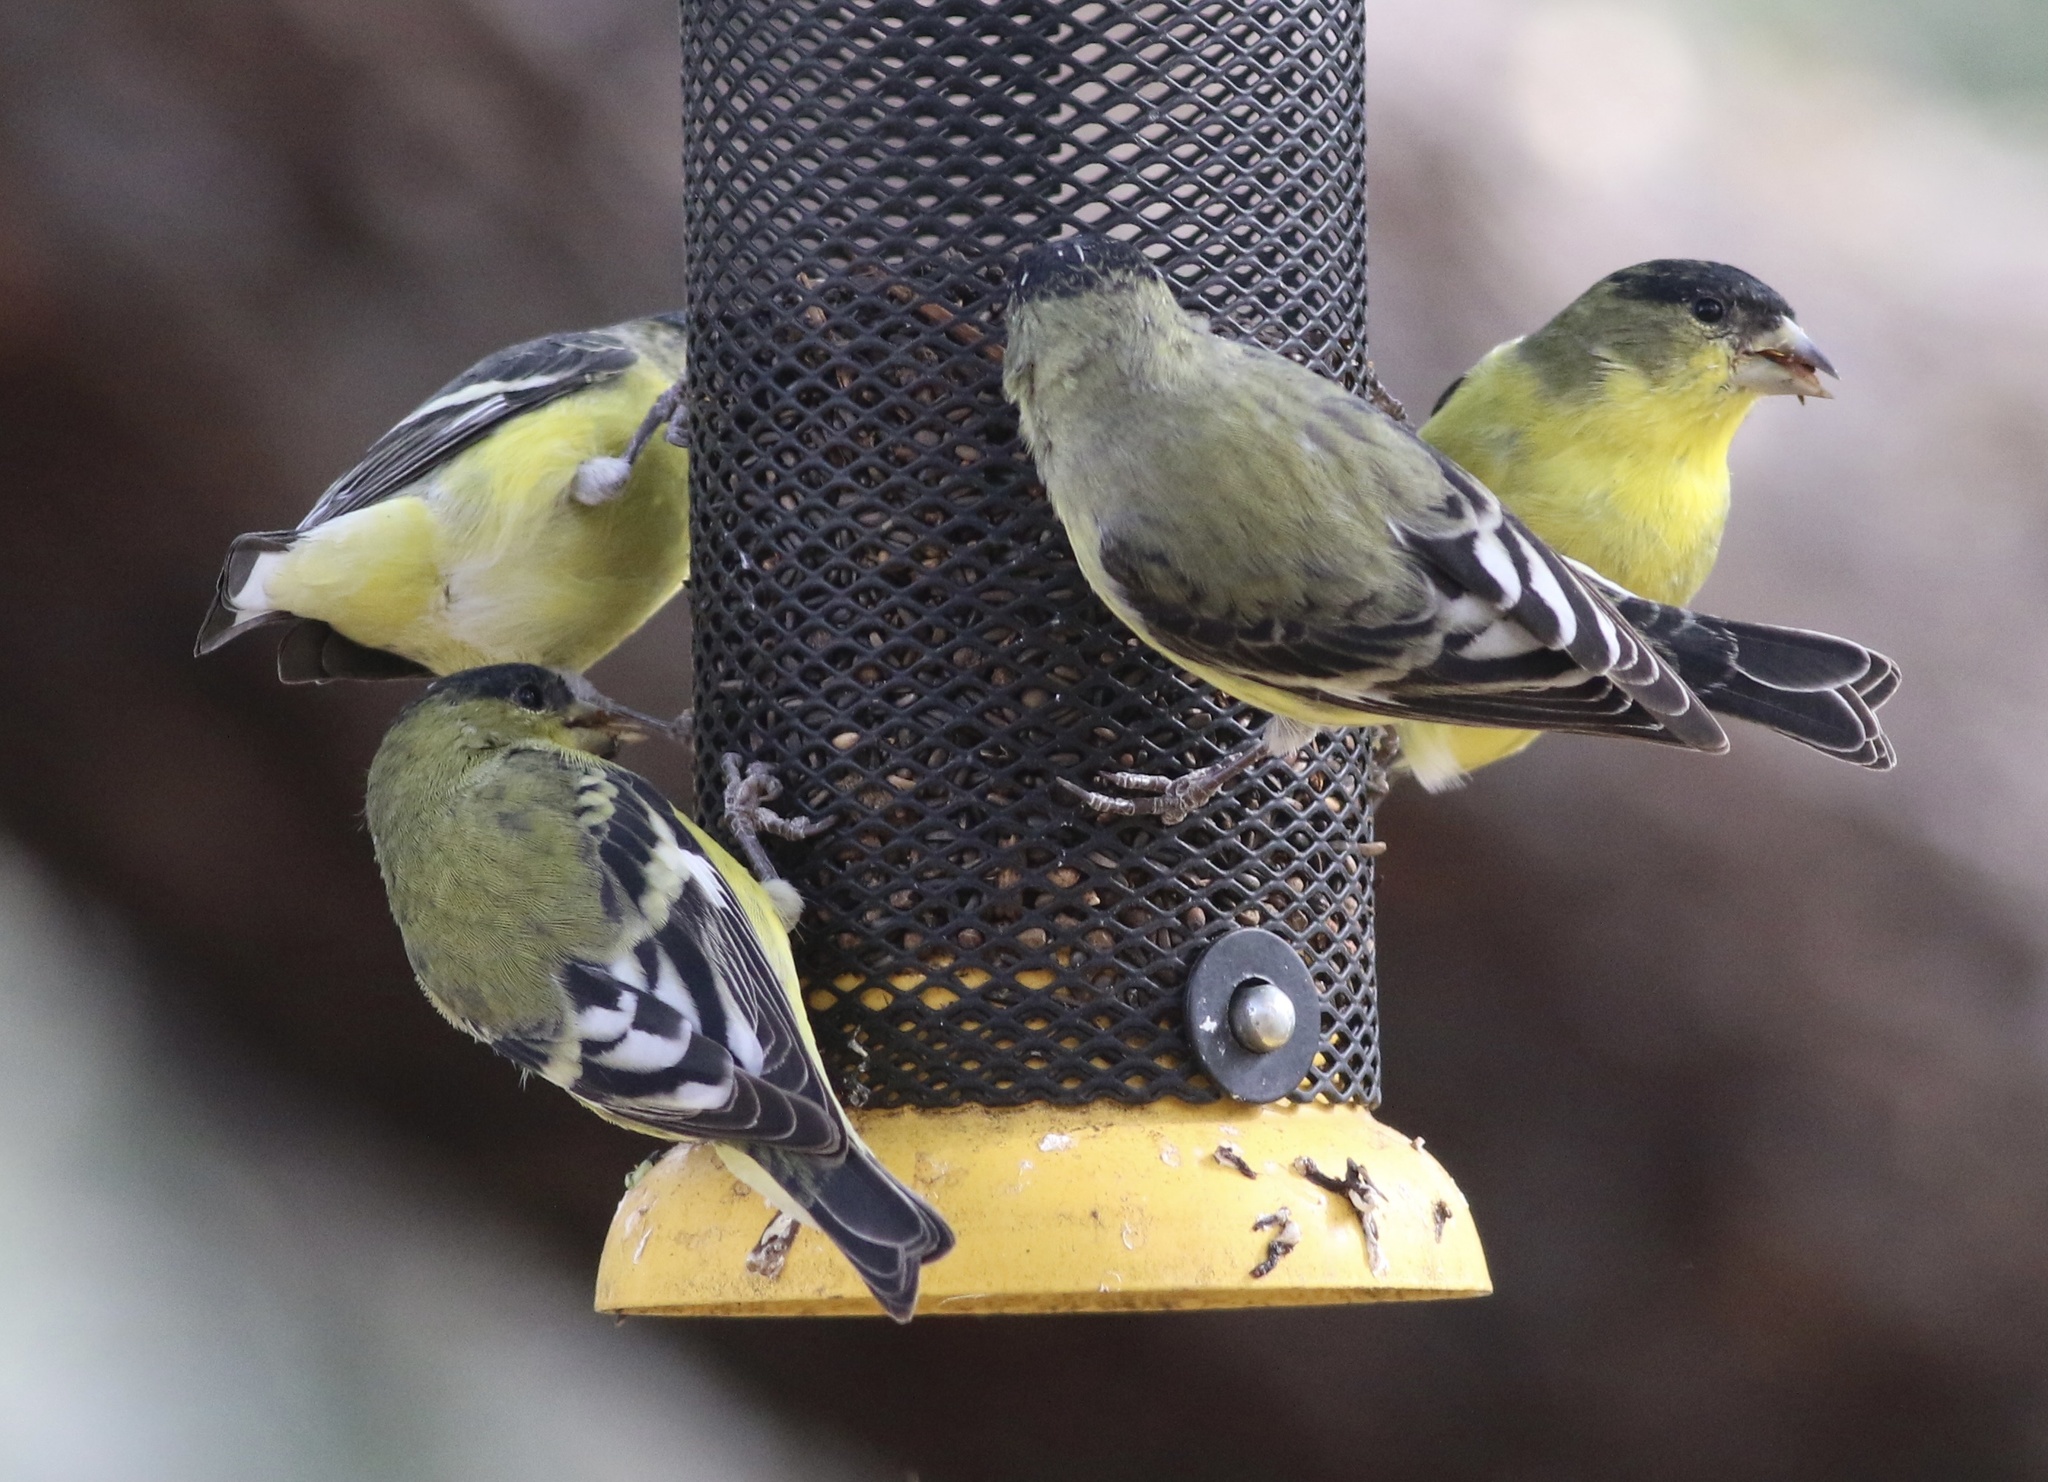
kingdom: Animalia
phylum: Chordata
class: Aves
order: Passeriformes
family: Fringillidae
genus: Spinus
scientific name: Spinus psaltria
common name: Lesser goldfinch
